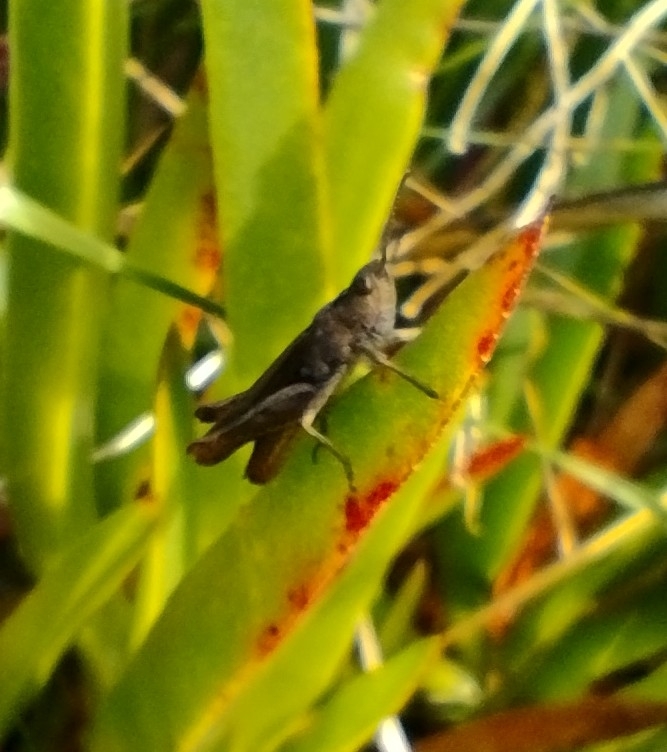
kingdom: Animalia
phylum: Arthropoda
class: Insecta
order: Orthoptera
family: Acrididae
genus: Chorthippus
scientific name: Chorthippus brunneus
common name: Field grasshopper
